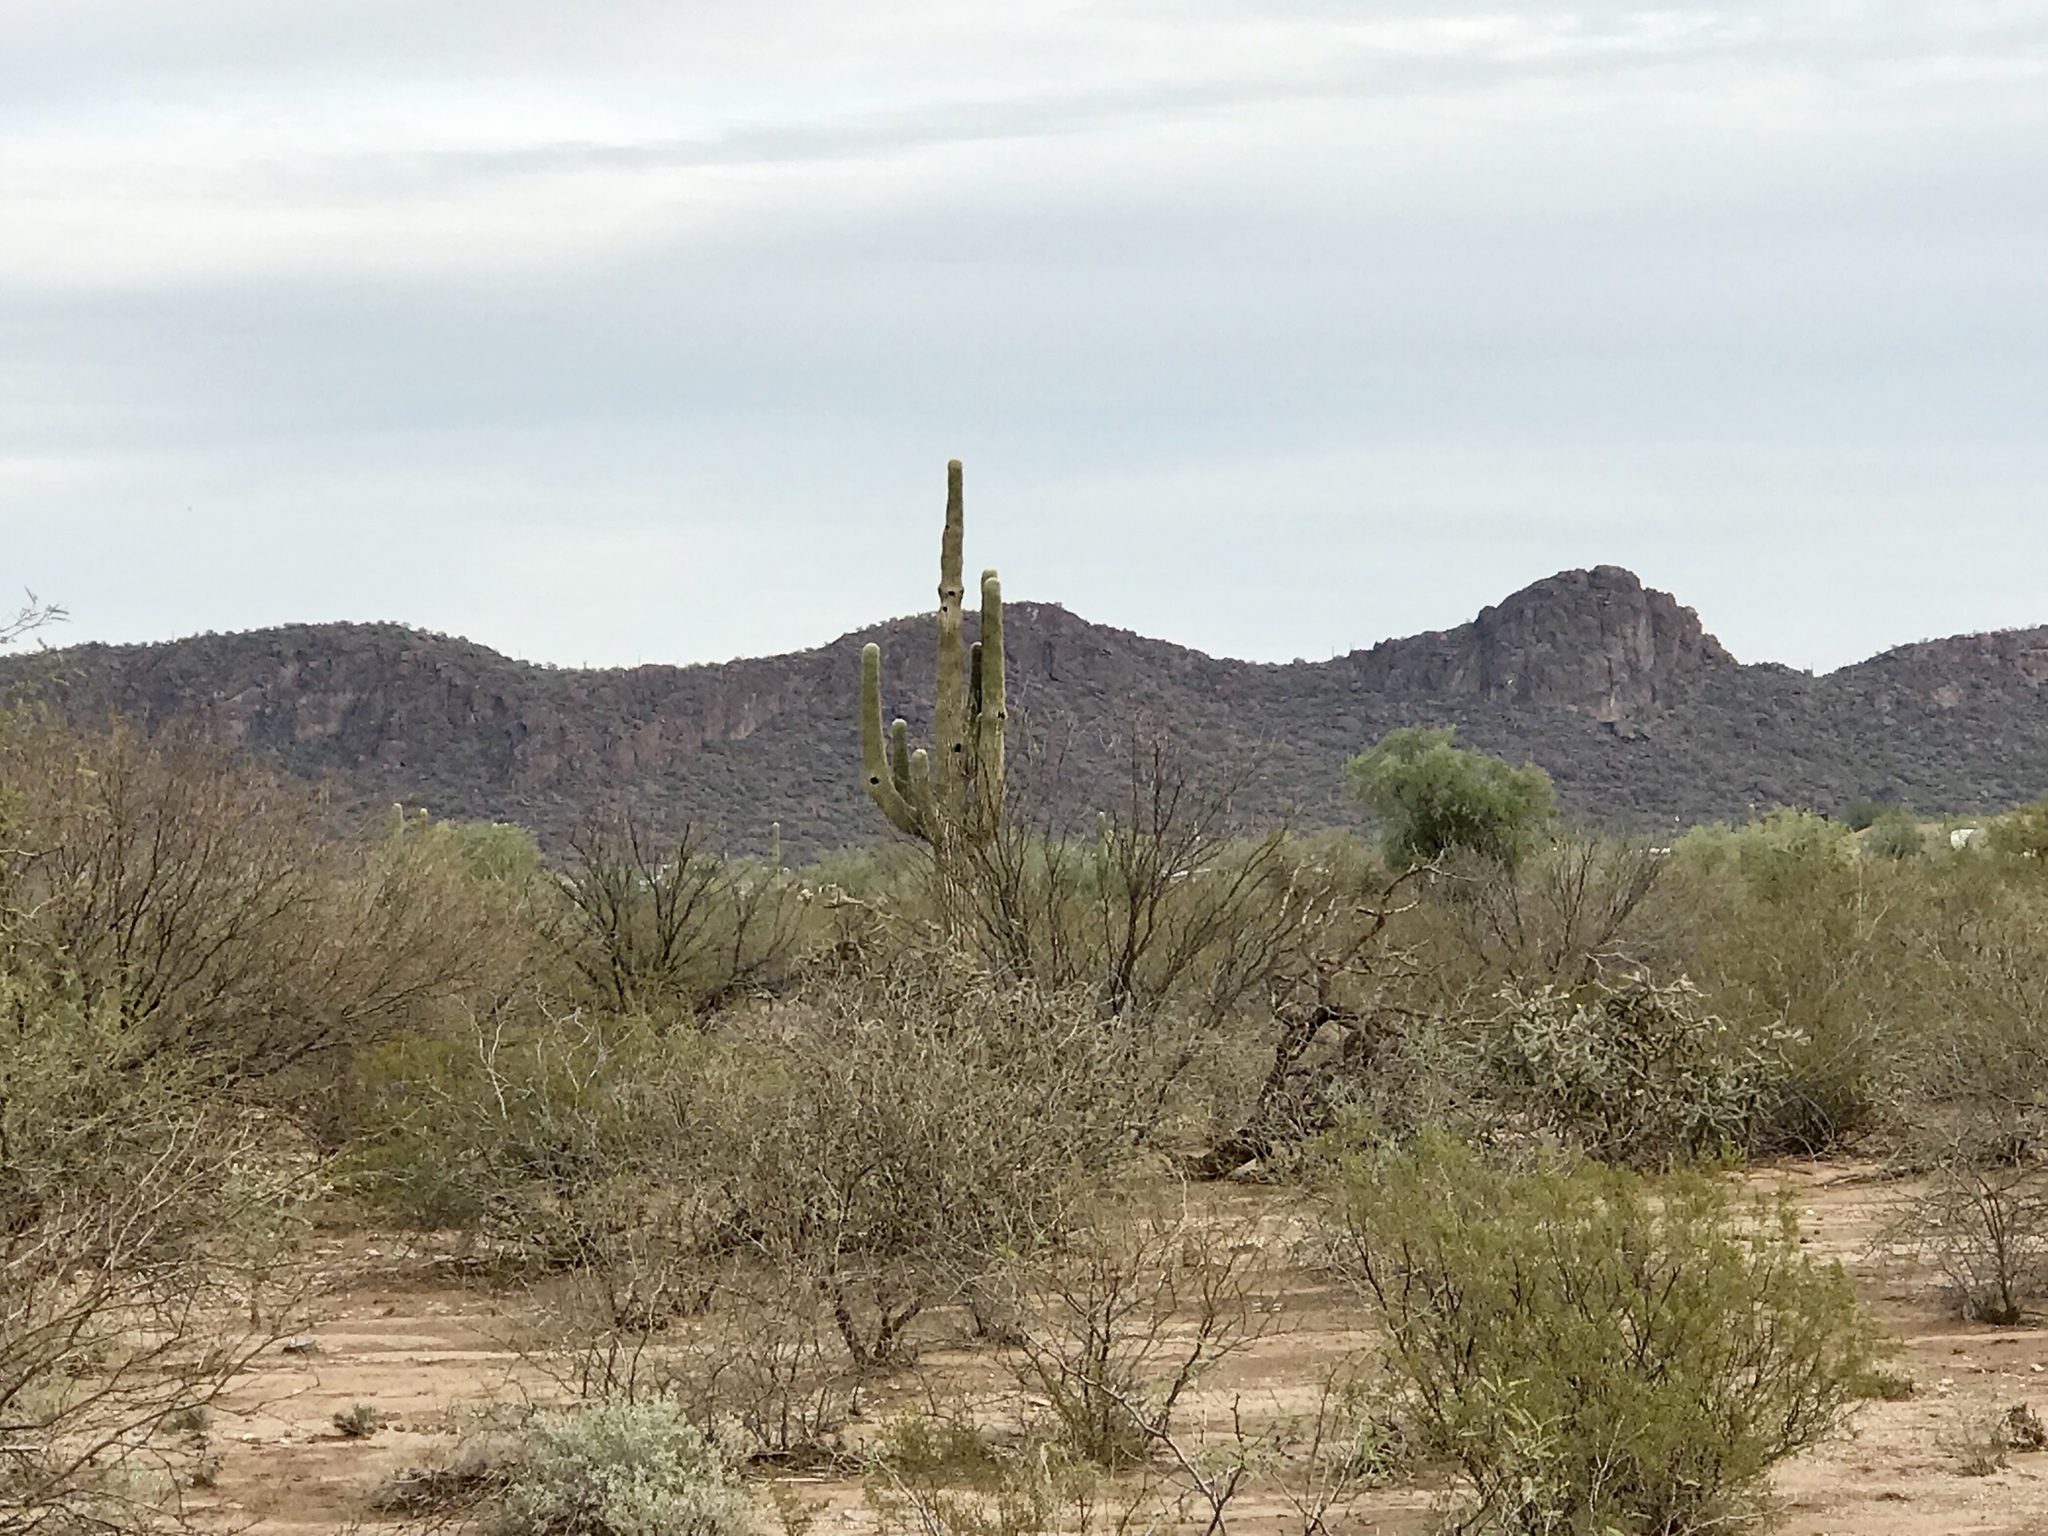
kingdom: Plantae
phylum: Tracheophyta
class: Magnoliopsida
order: Caryophyllales
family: Cactaceae
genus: Carnegiea
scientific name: Carnegiea gigantea
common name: Saguaro
